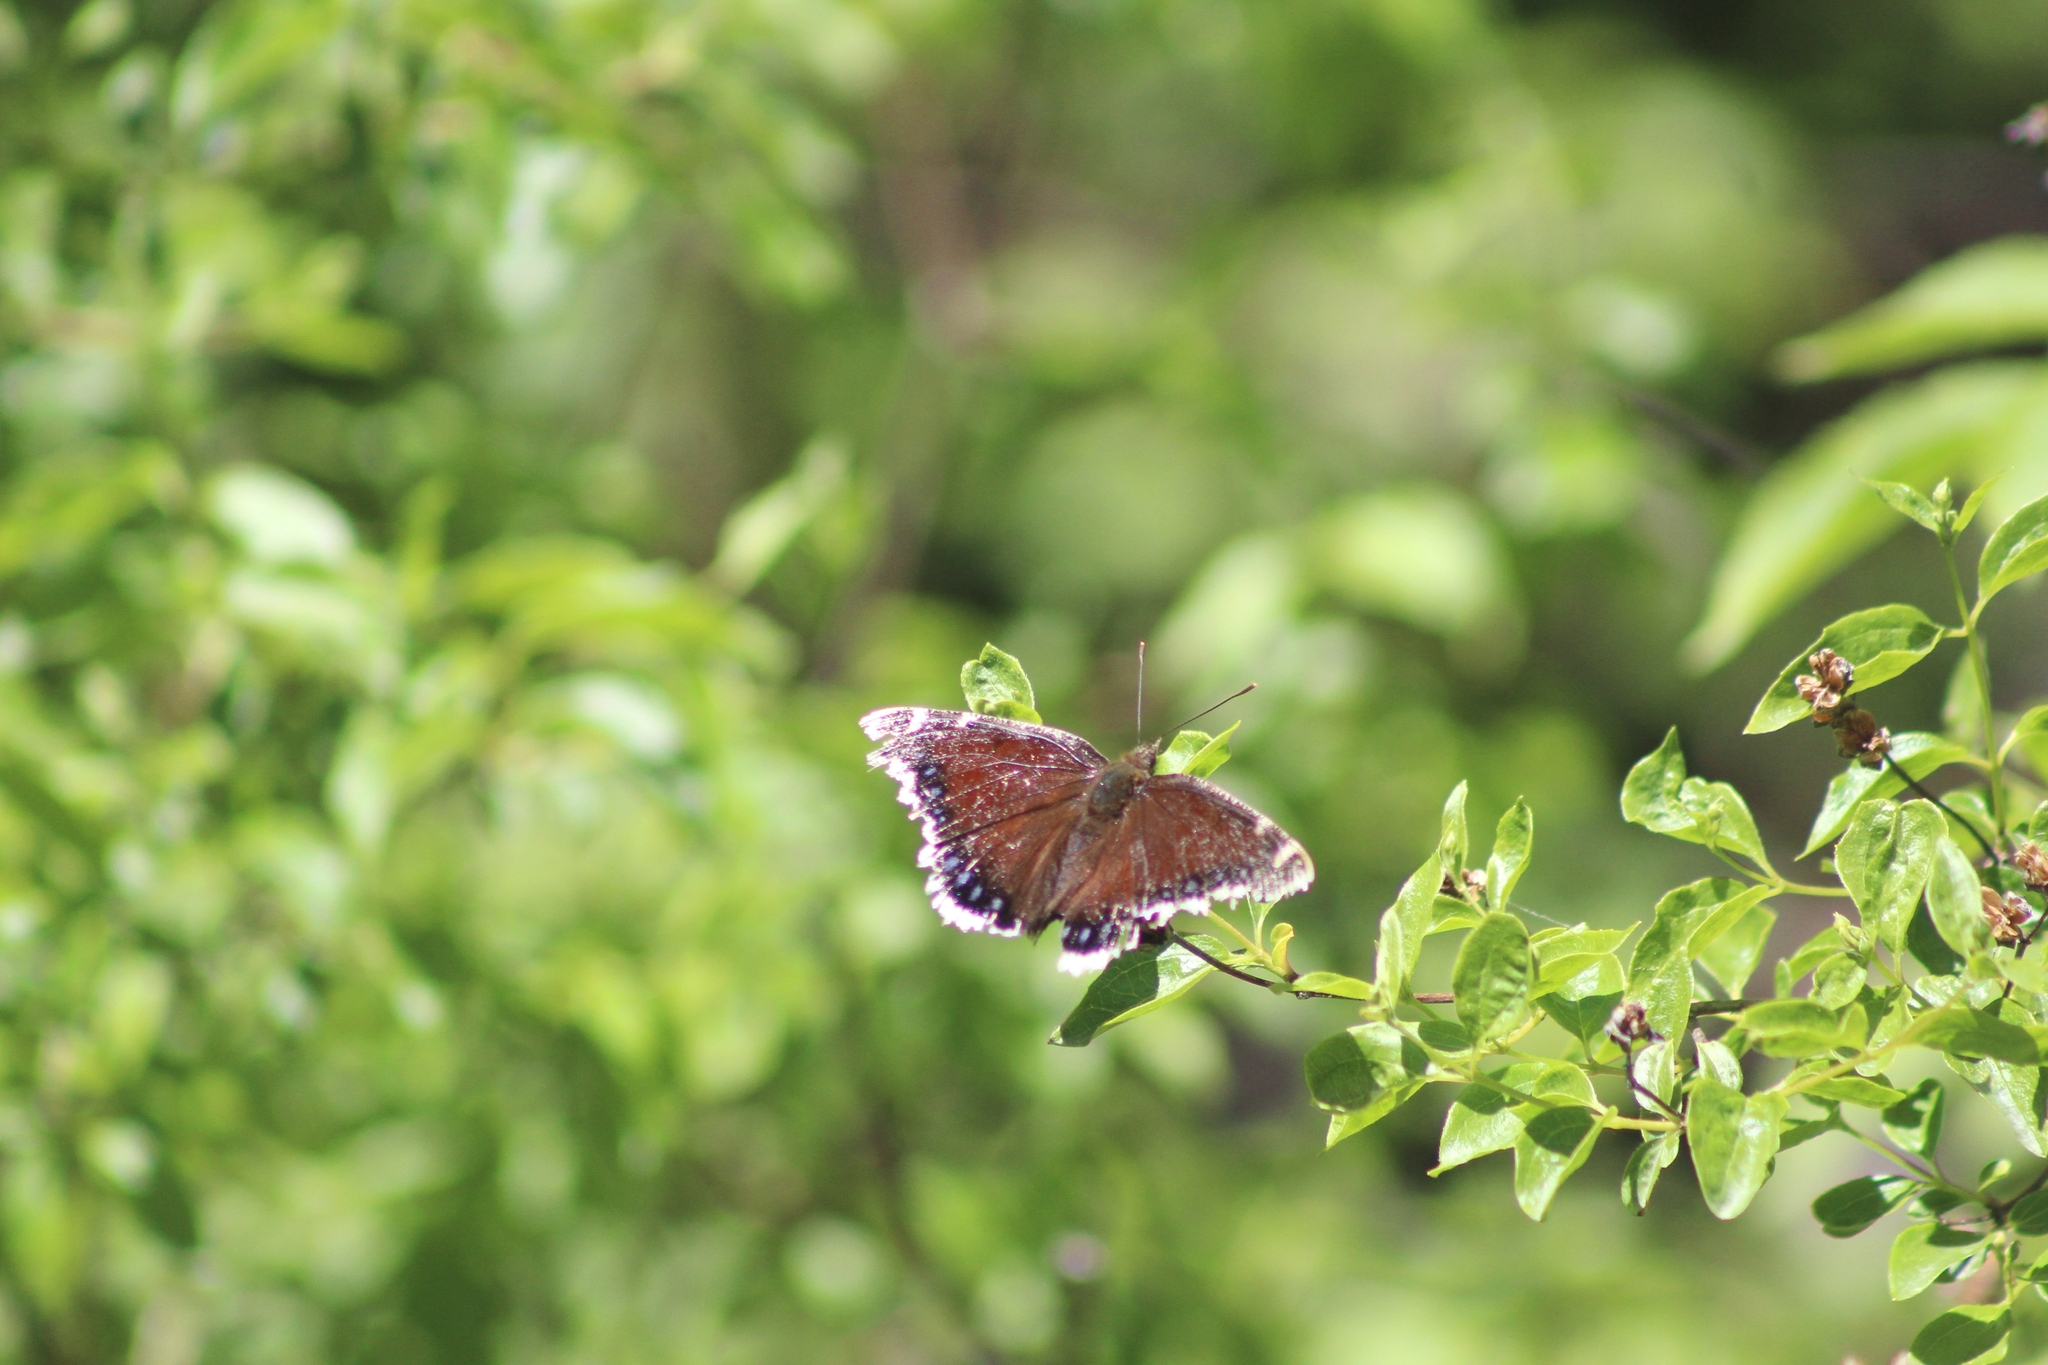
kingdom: Animalia
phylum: Arthropoda
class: Insecta
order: Lepidoptera
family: Nymphalidae
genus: Nymphalis
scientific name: Nymphalis antiopa
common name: Camberwell beauty
